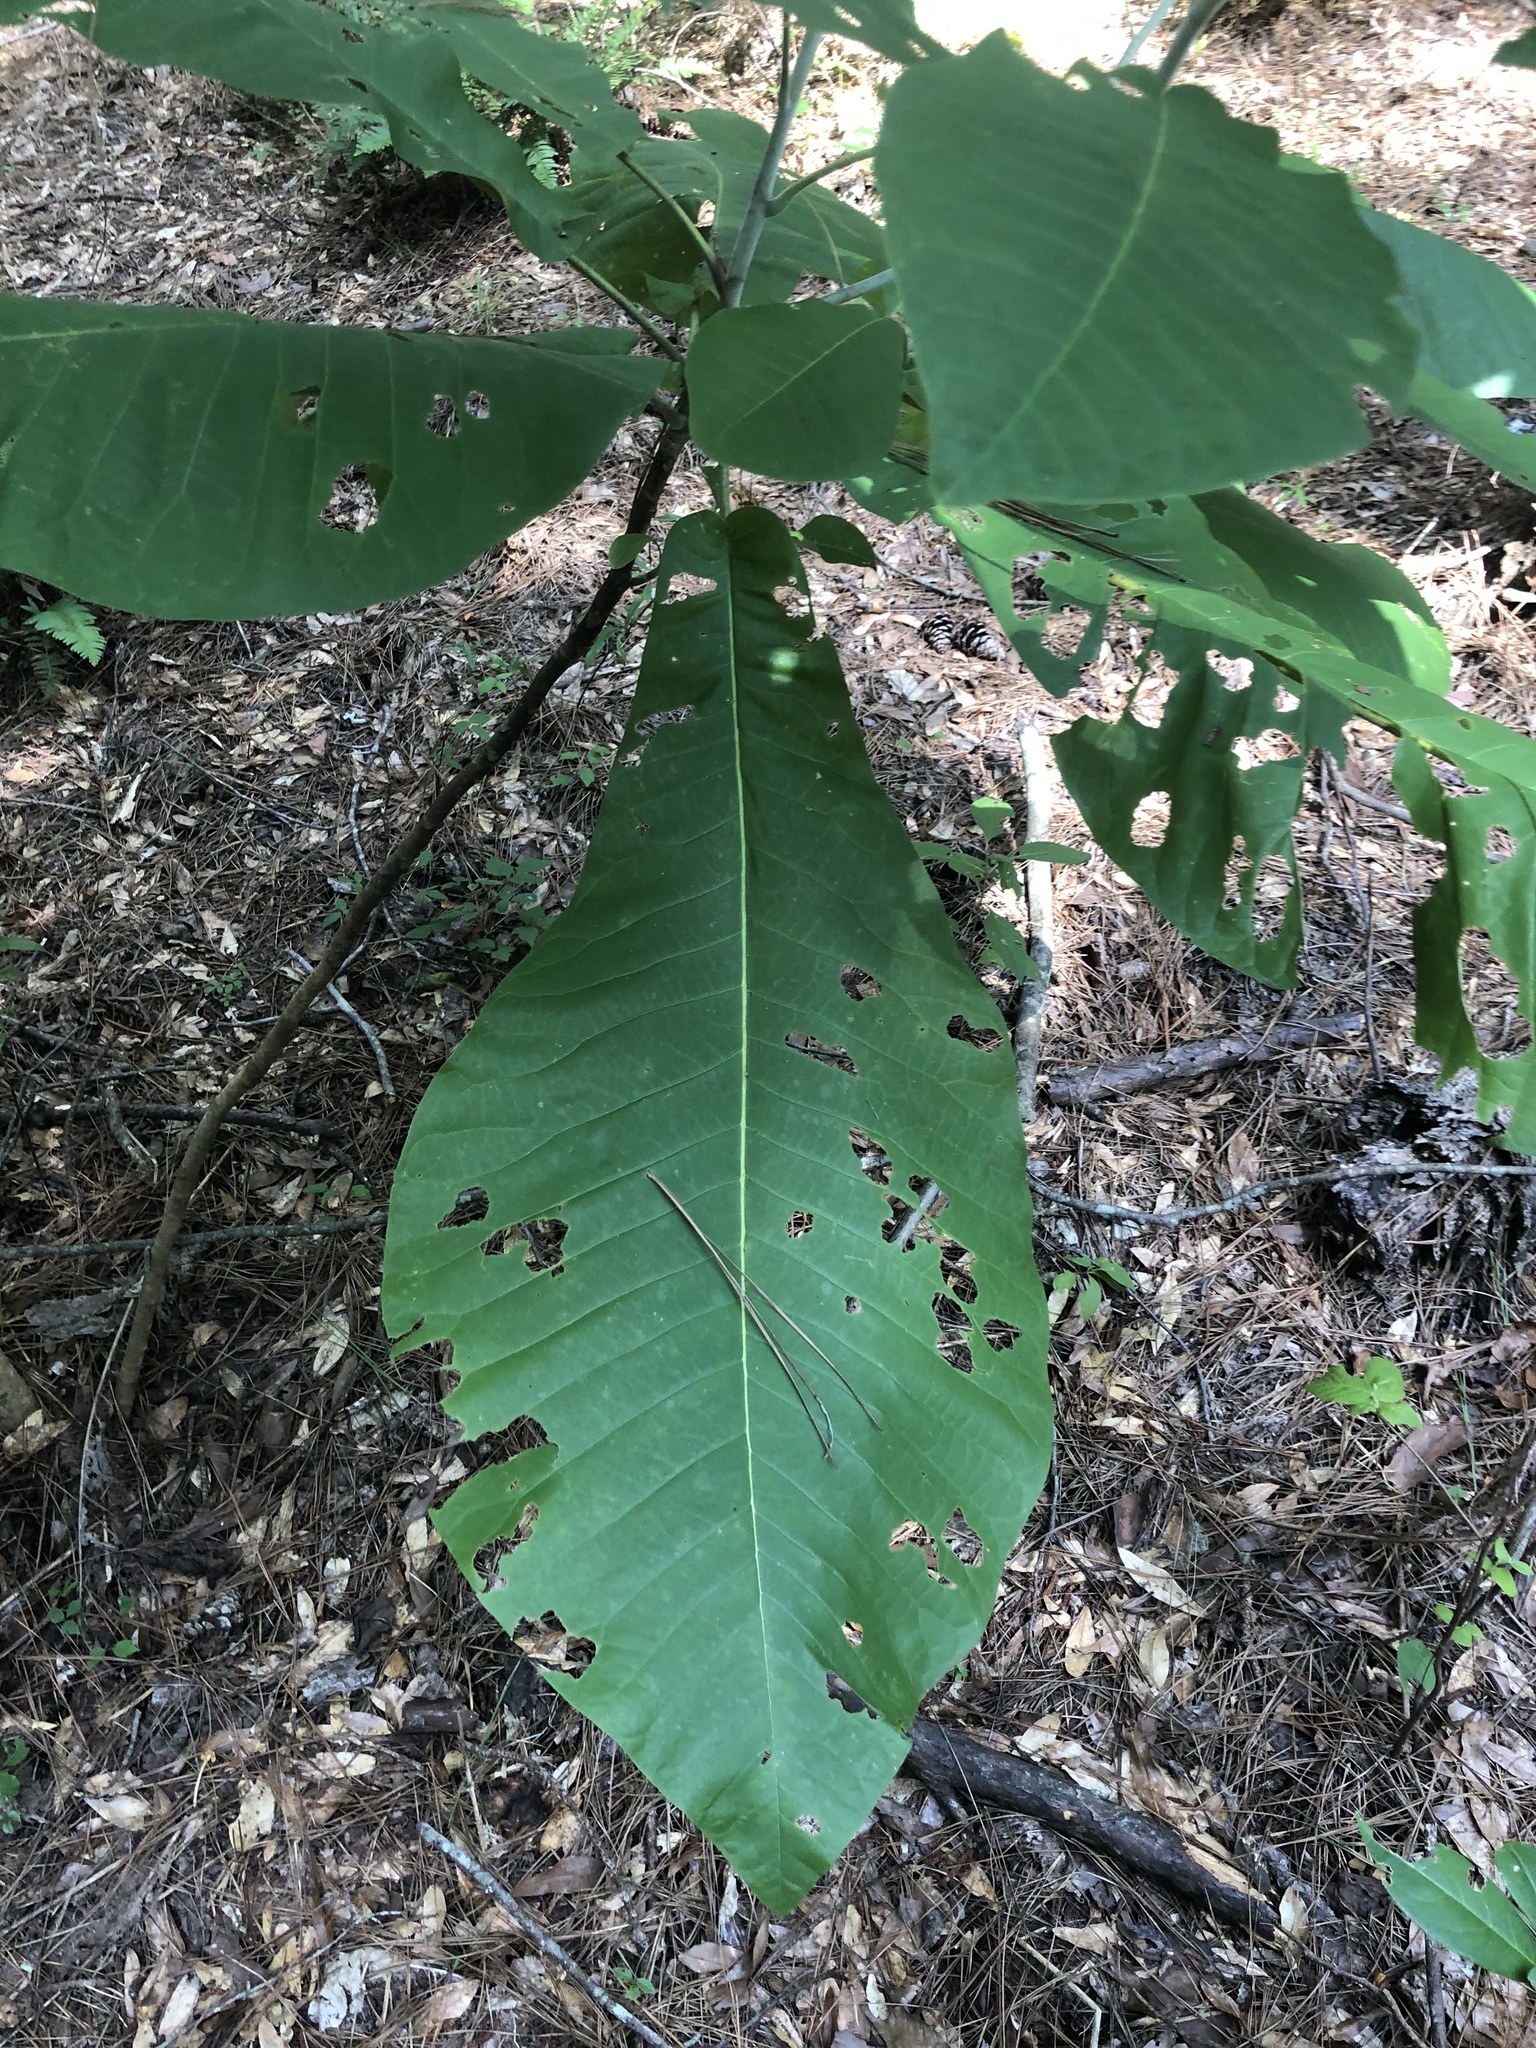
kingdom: Plantae
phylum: Tracheophyta
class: Magnoliopsida
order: Magnoliales
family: Magnoliaceae
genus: Magnolia
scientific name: Magnolia macrophylla
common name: Big-leaf magnolia
